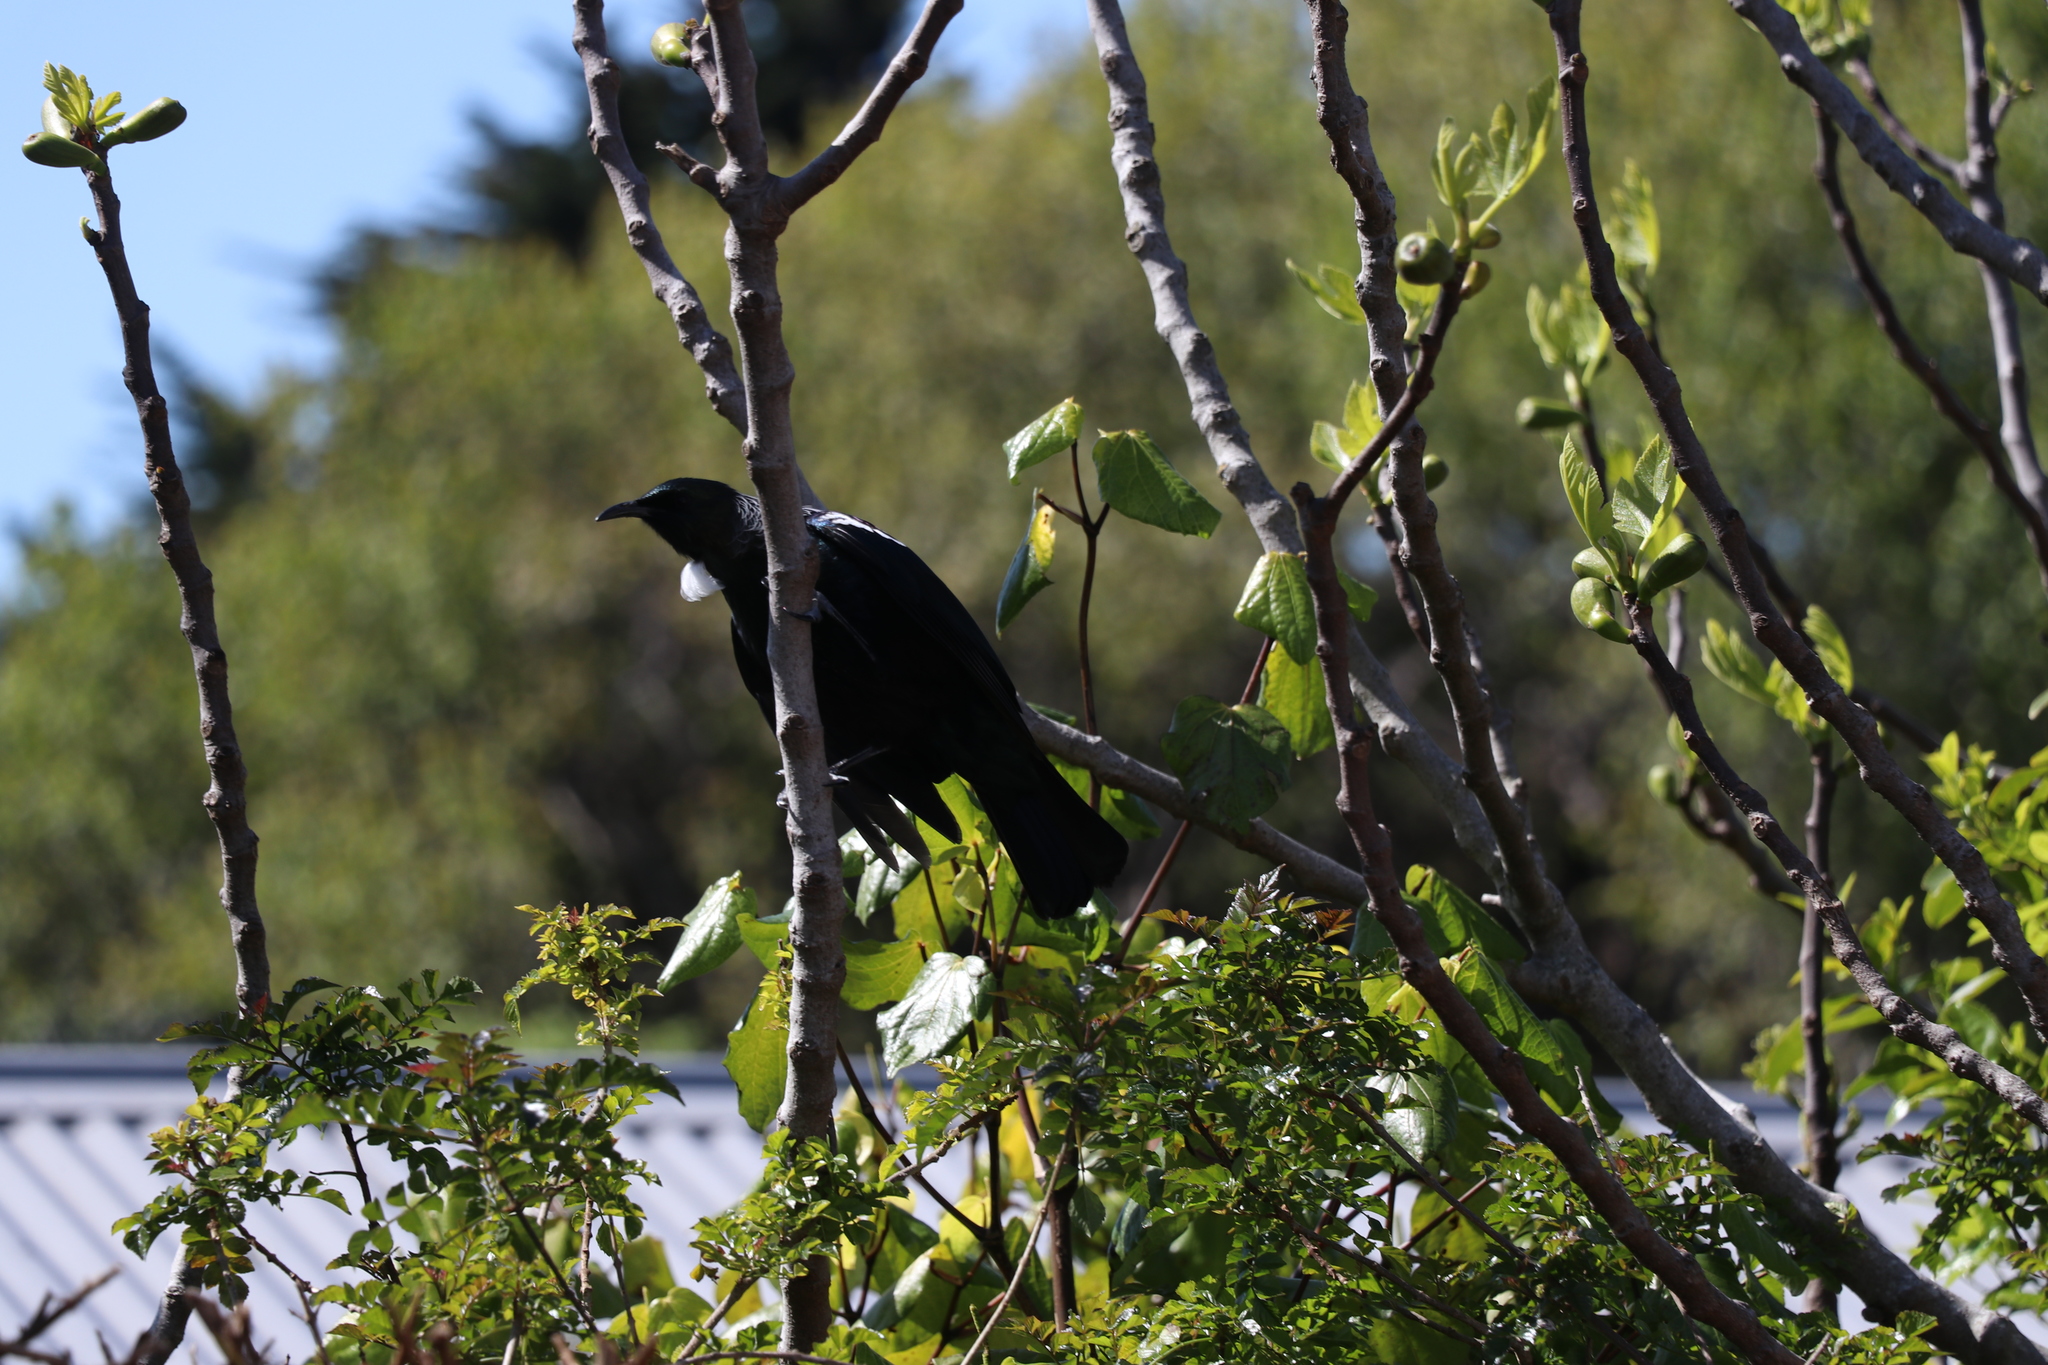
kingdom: Animalia
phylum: Chordata
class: Aves
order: Passeriformes
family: Meliphagidae
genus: Prosthemadera
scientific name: Prosthemadera novaeseelandiae
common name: Tui
